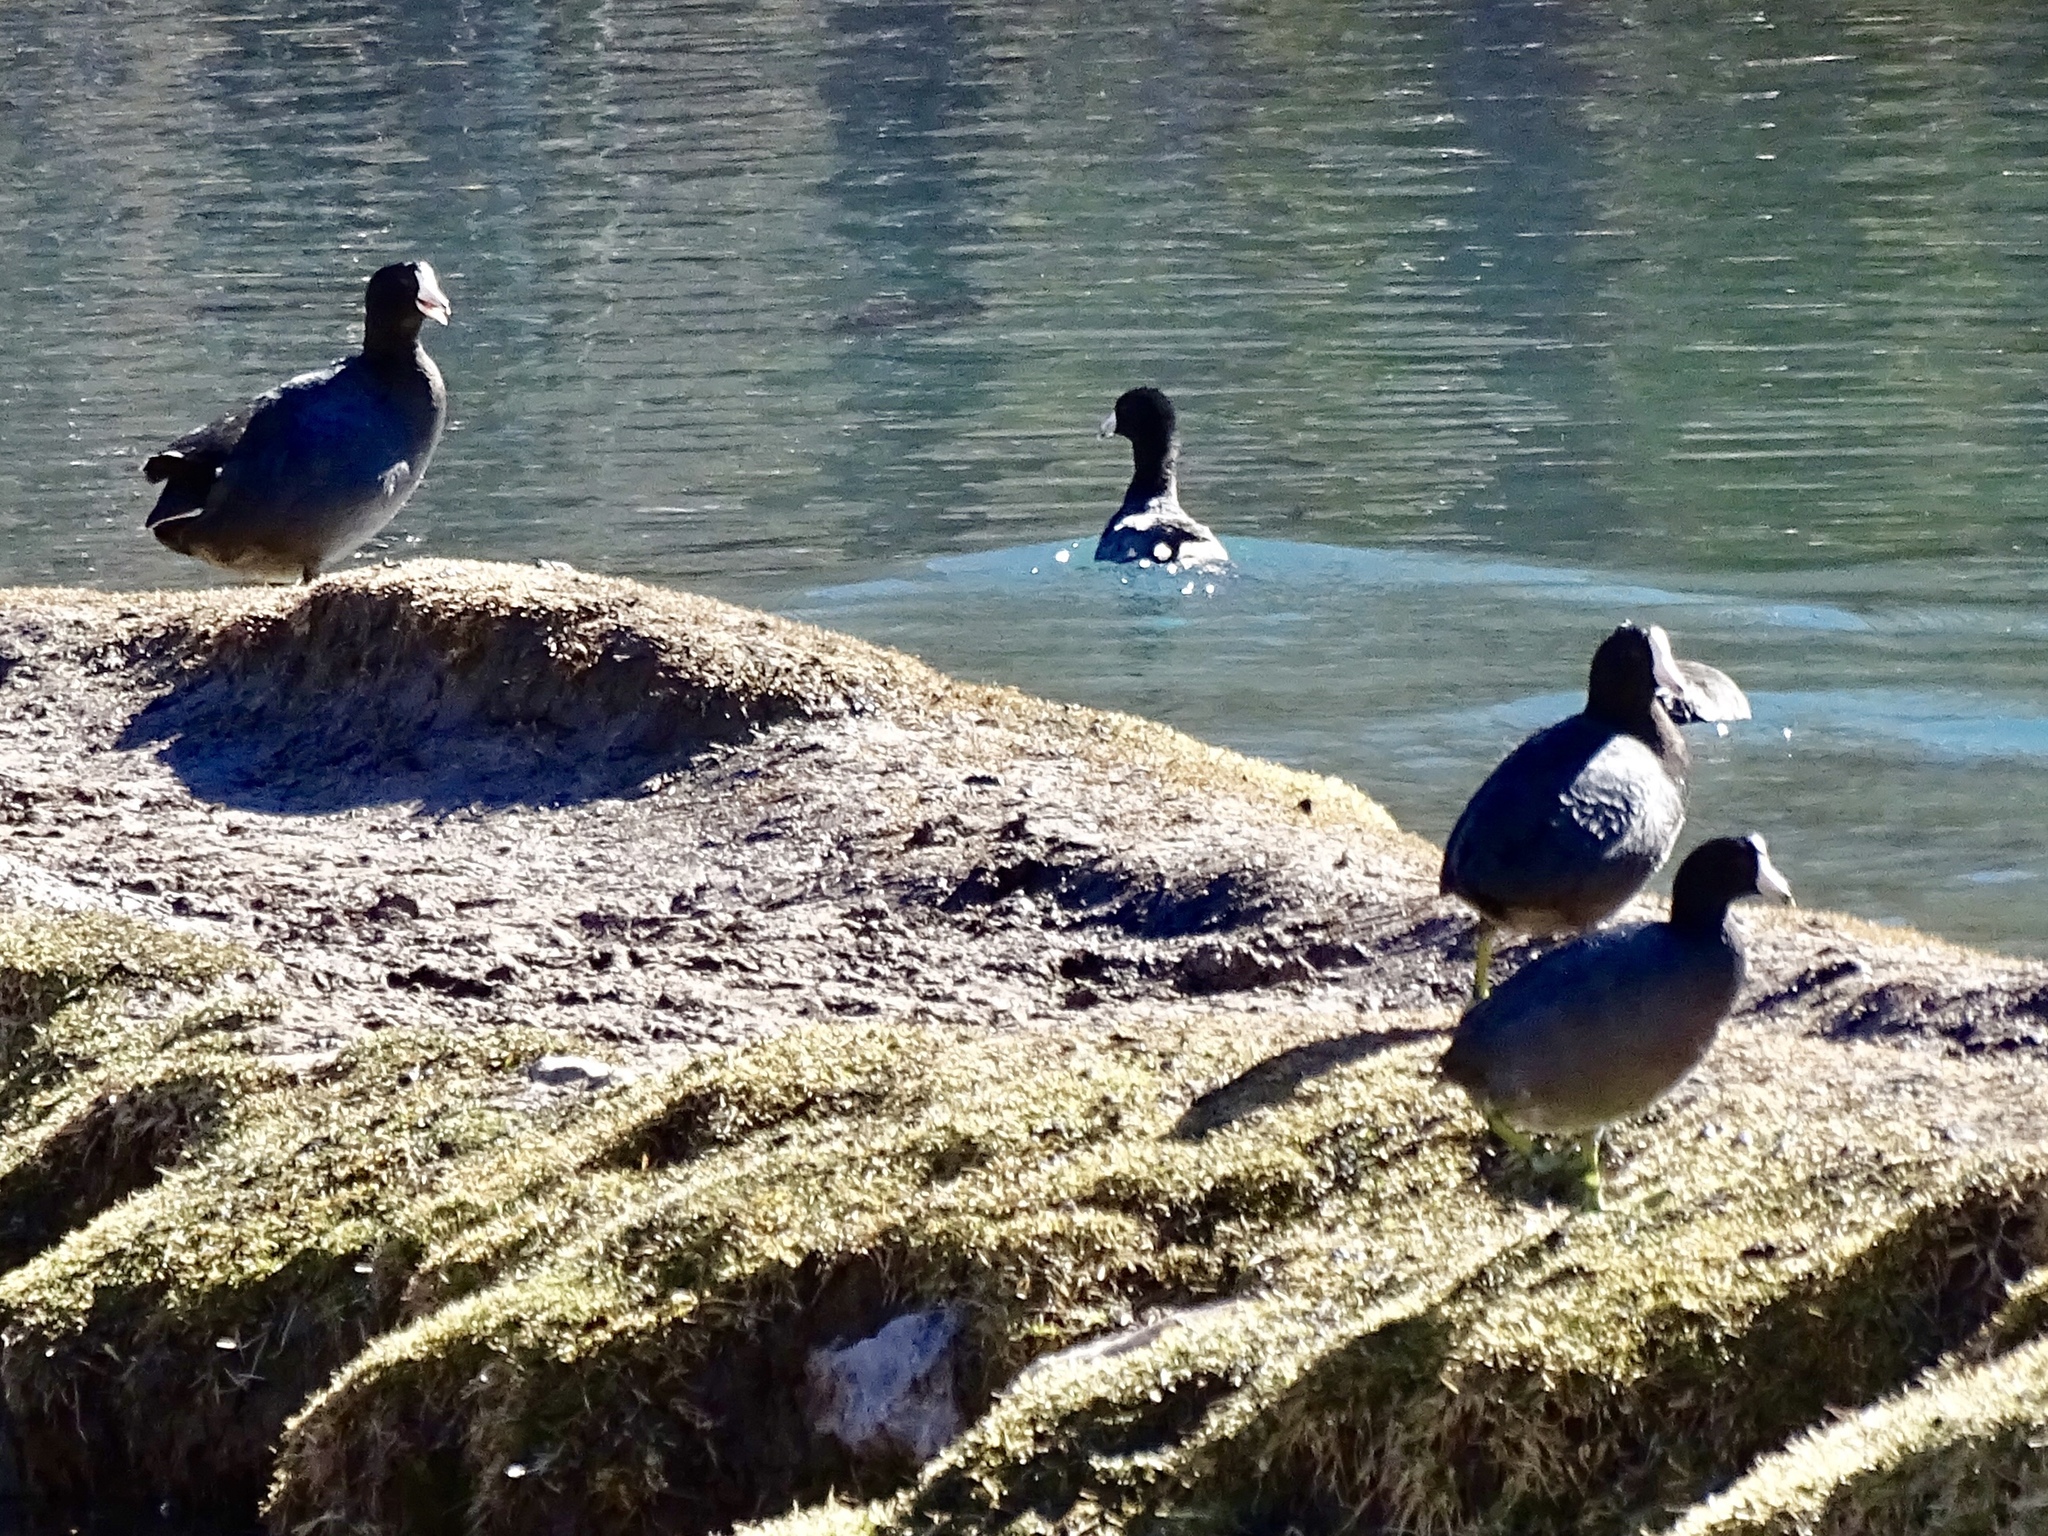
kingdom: Animalia
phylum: Chordata
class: Aves
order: Gruiformes
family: Rallidae
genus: Fulica
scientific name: Fulica americana
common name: American coot
